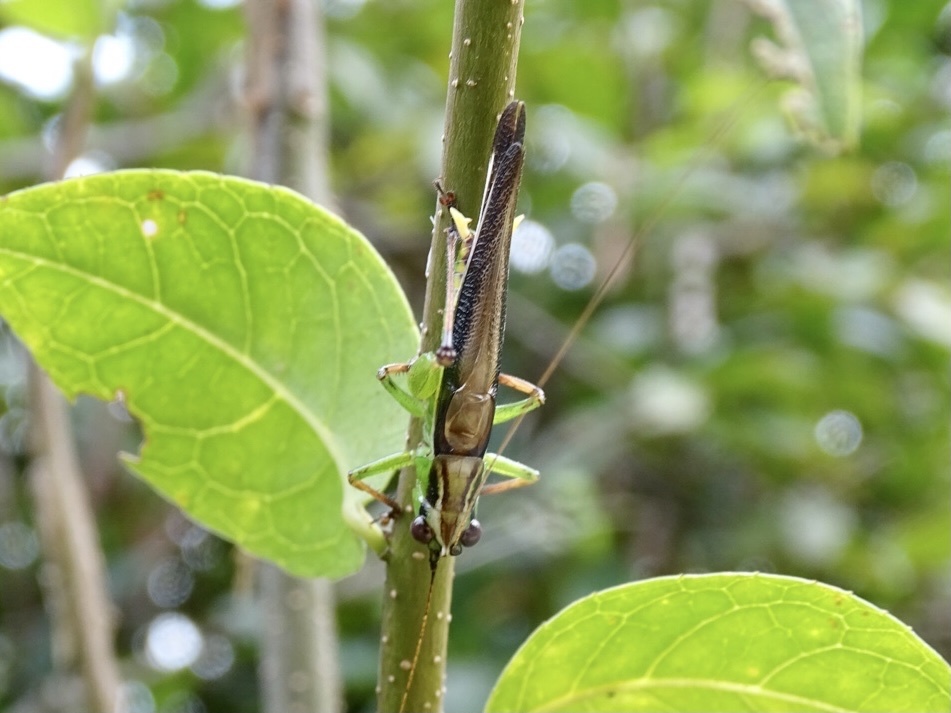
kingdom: Animalia
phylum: Arthropoda
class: Insecta
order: Orthoptera
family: Tettigoniidae
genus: Conocephalus
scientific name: Conocephalus melaenus
